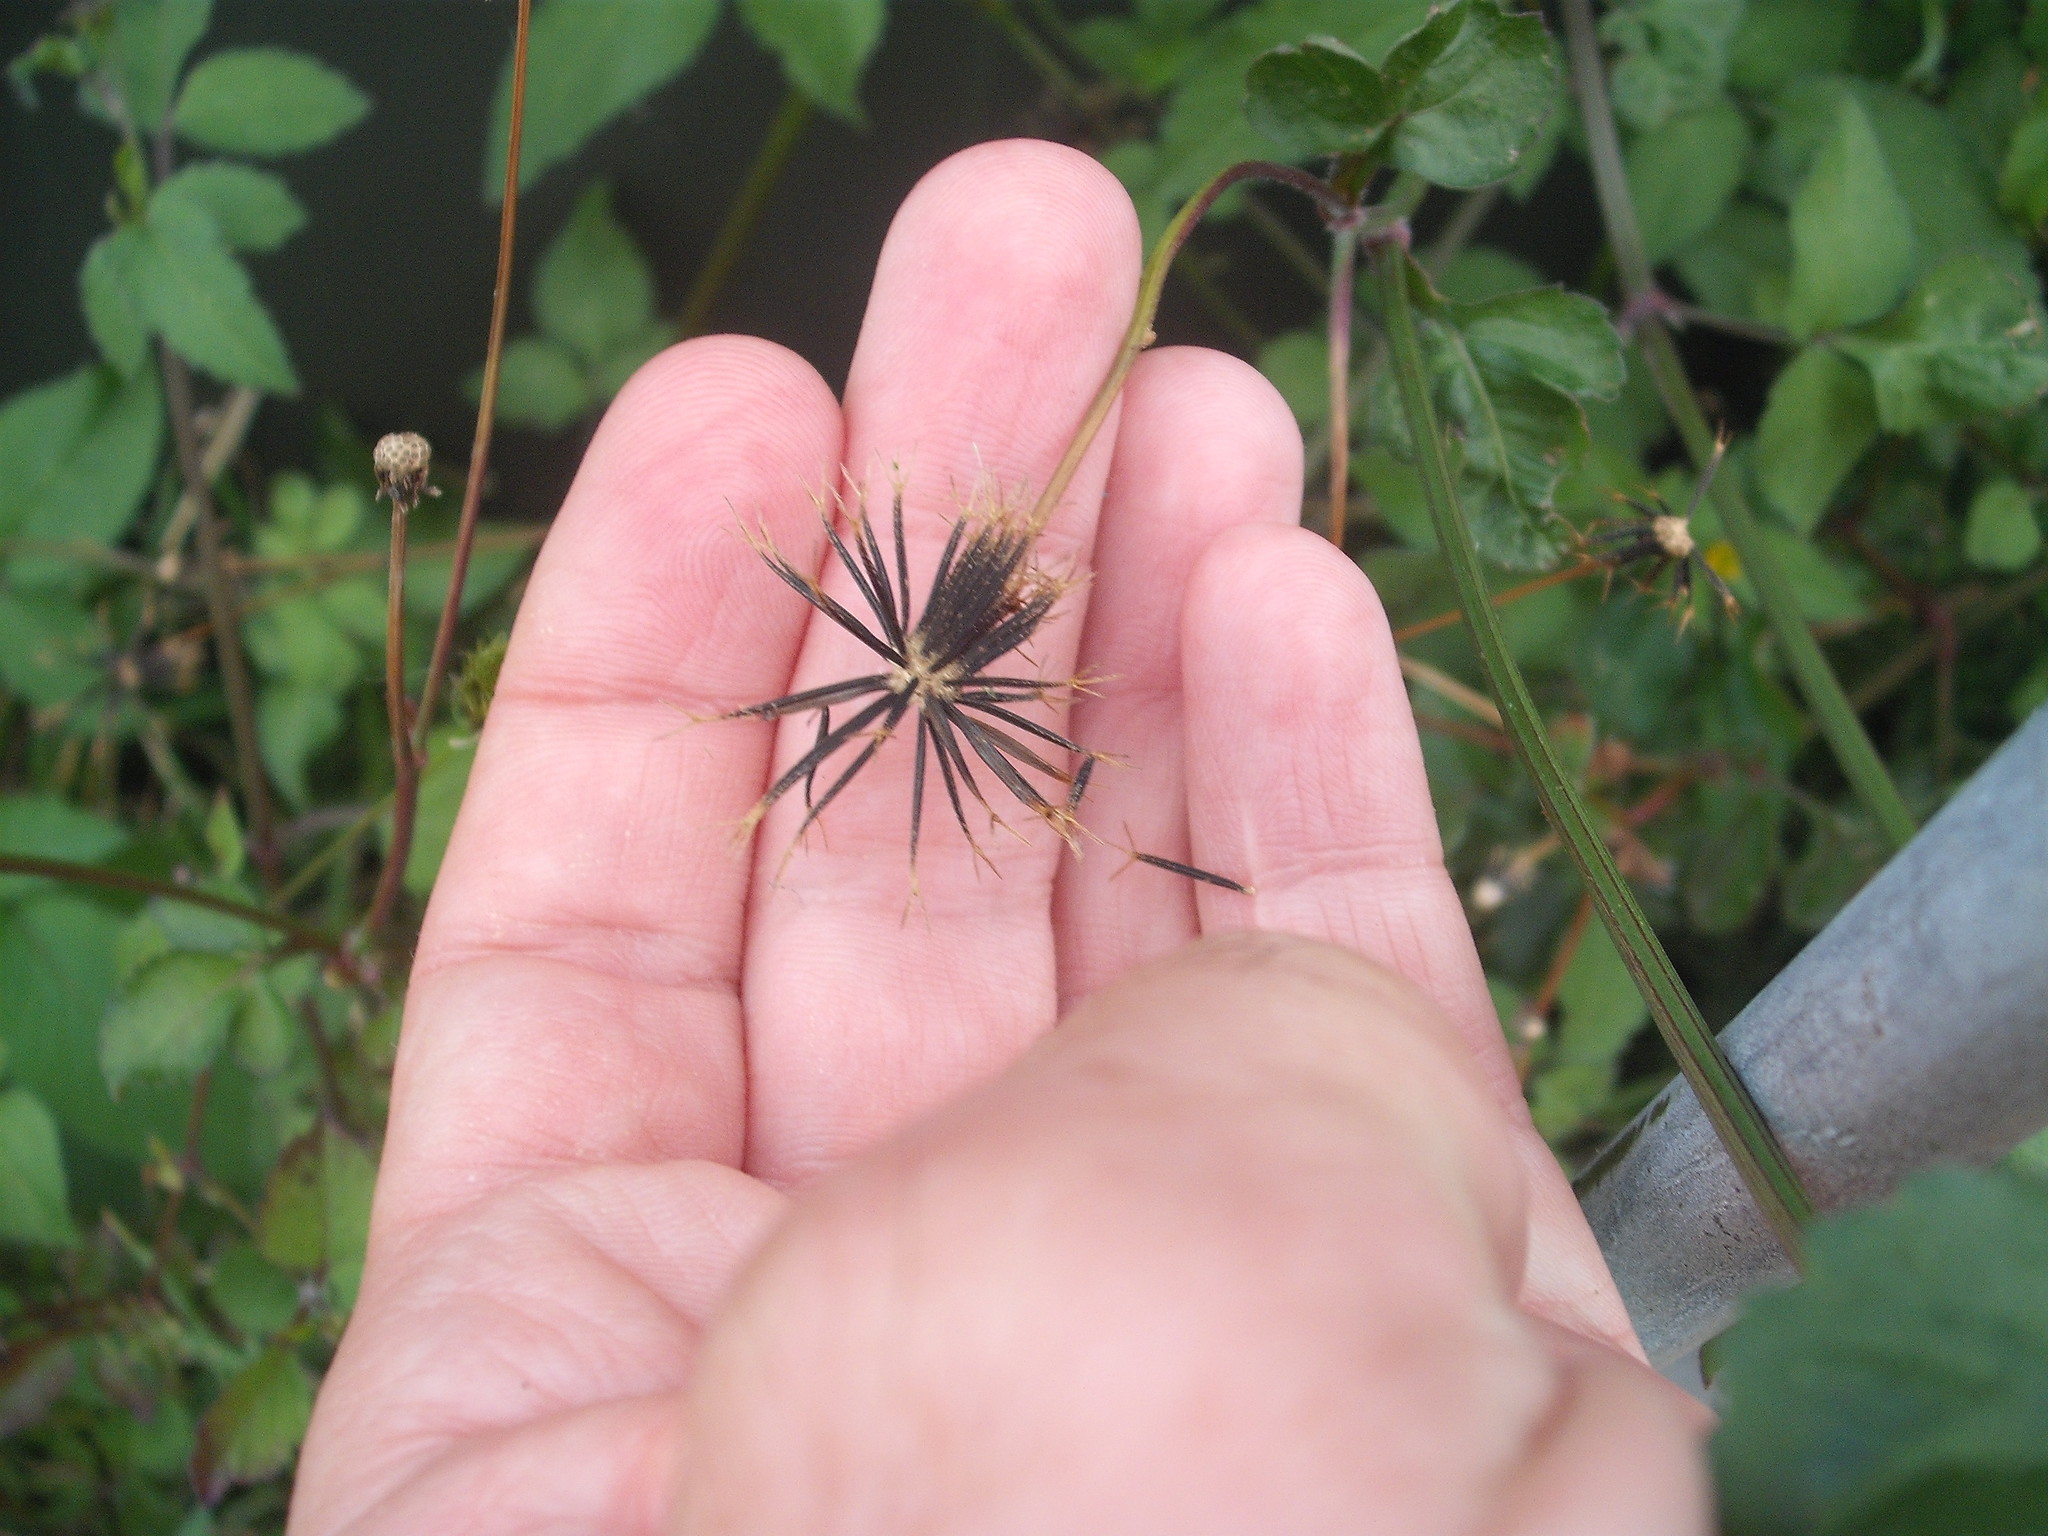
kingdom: Plantae
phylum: Tracheophyta
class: Magnoliopsida
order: Asterales
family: Asteraceae
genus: Bidens
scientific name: Bidens pilosa
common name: Black-jack
